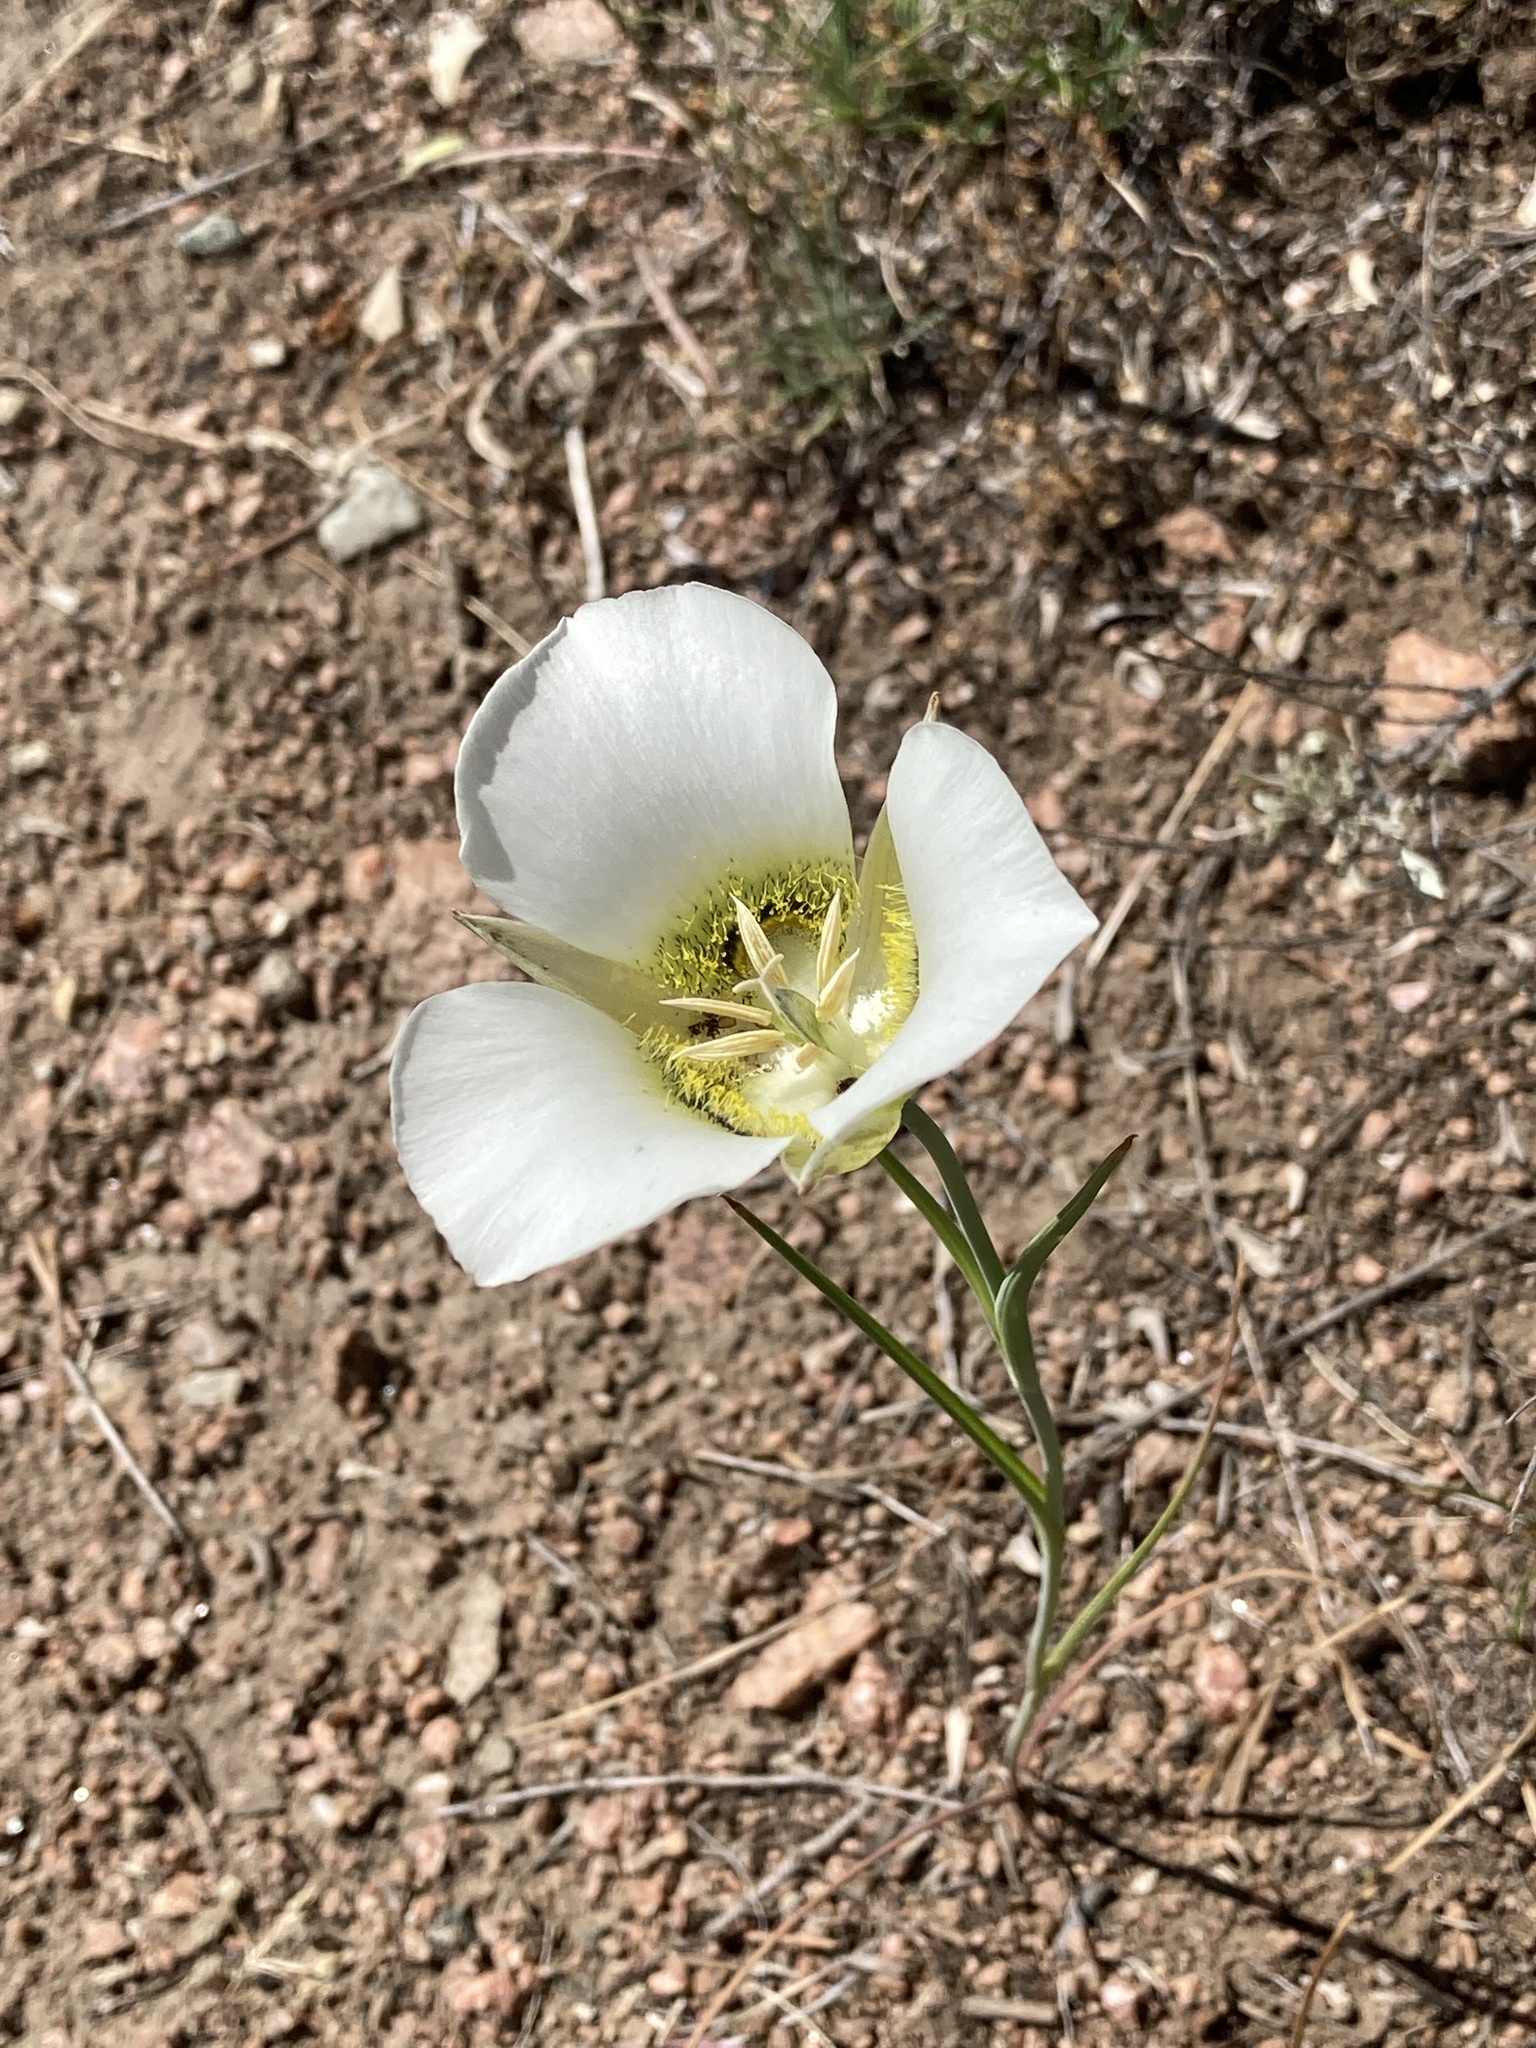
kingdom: Plantae
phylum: Tracheophyta
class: Liliopsida
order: Liliales
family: Liliaceae
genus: Calochortus
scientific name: Calochortus gunnisonii
